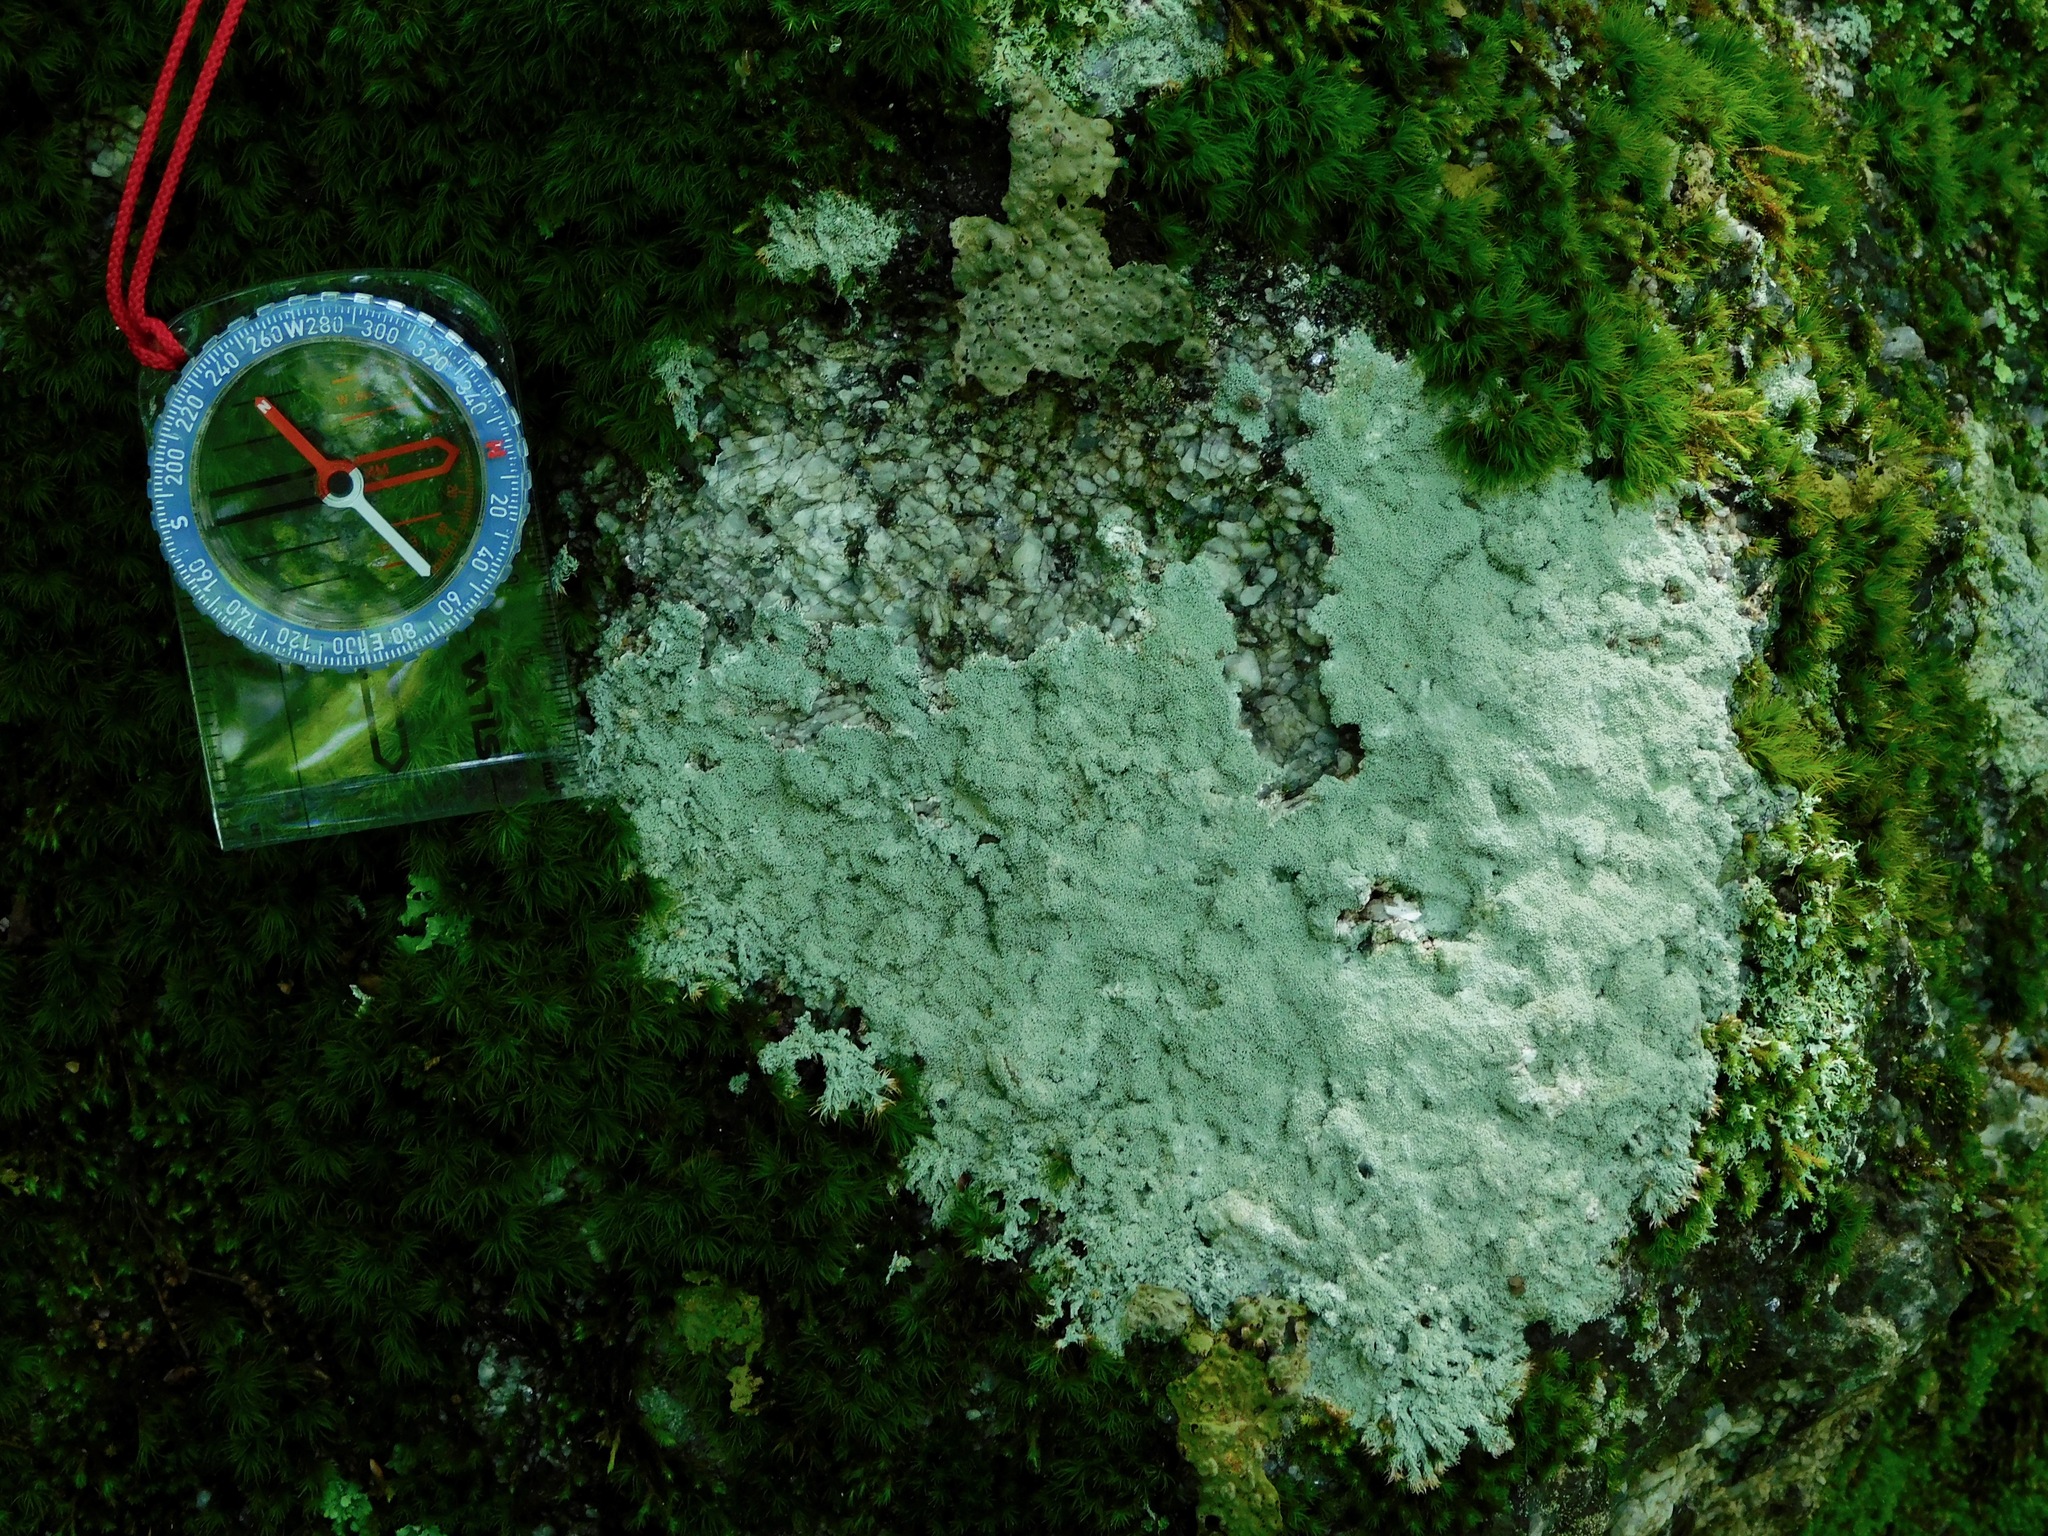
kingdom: Fungi
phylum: Ascomycota
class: Lecanoromycetes
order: Pertusariales
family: Ochrolechiaceae
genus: Ochrolechia
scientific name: Ochrolechia yasudae
